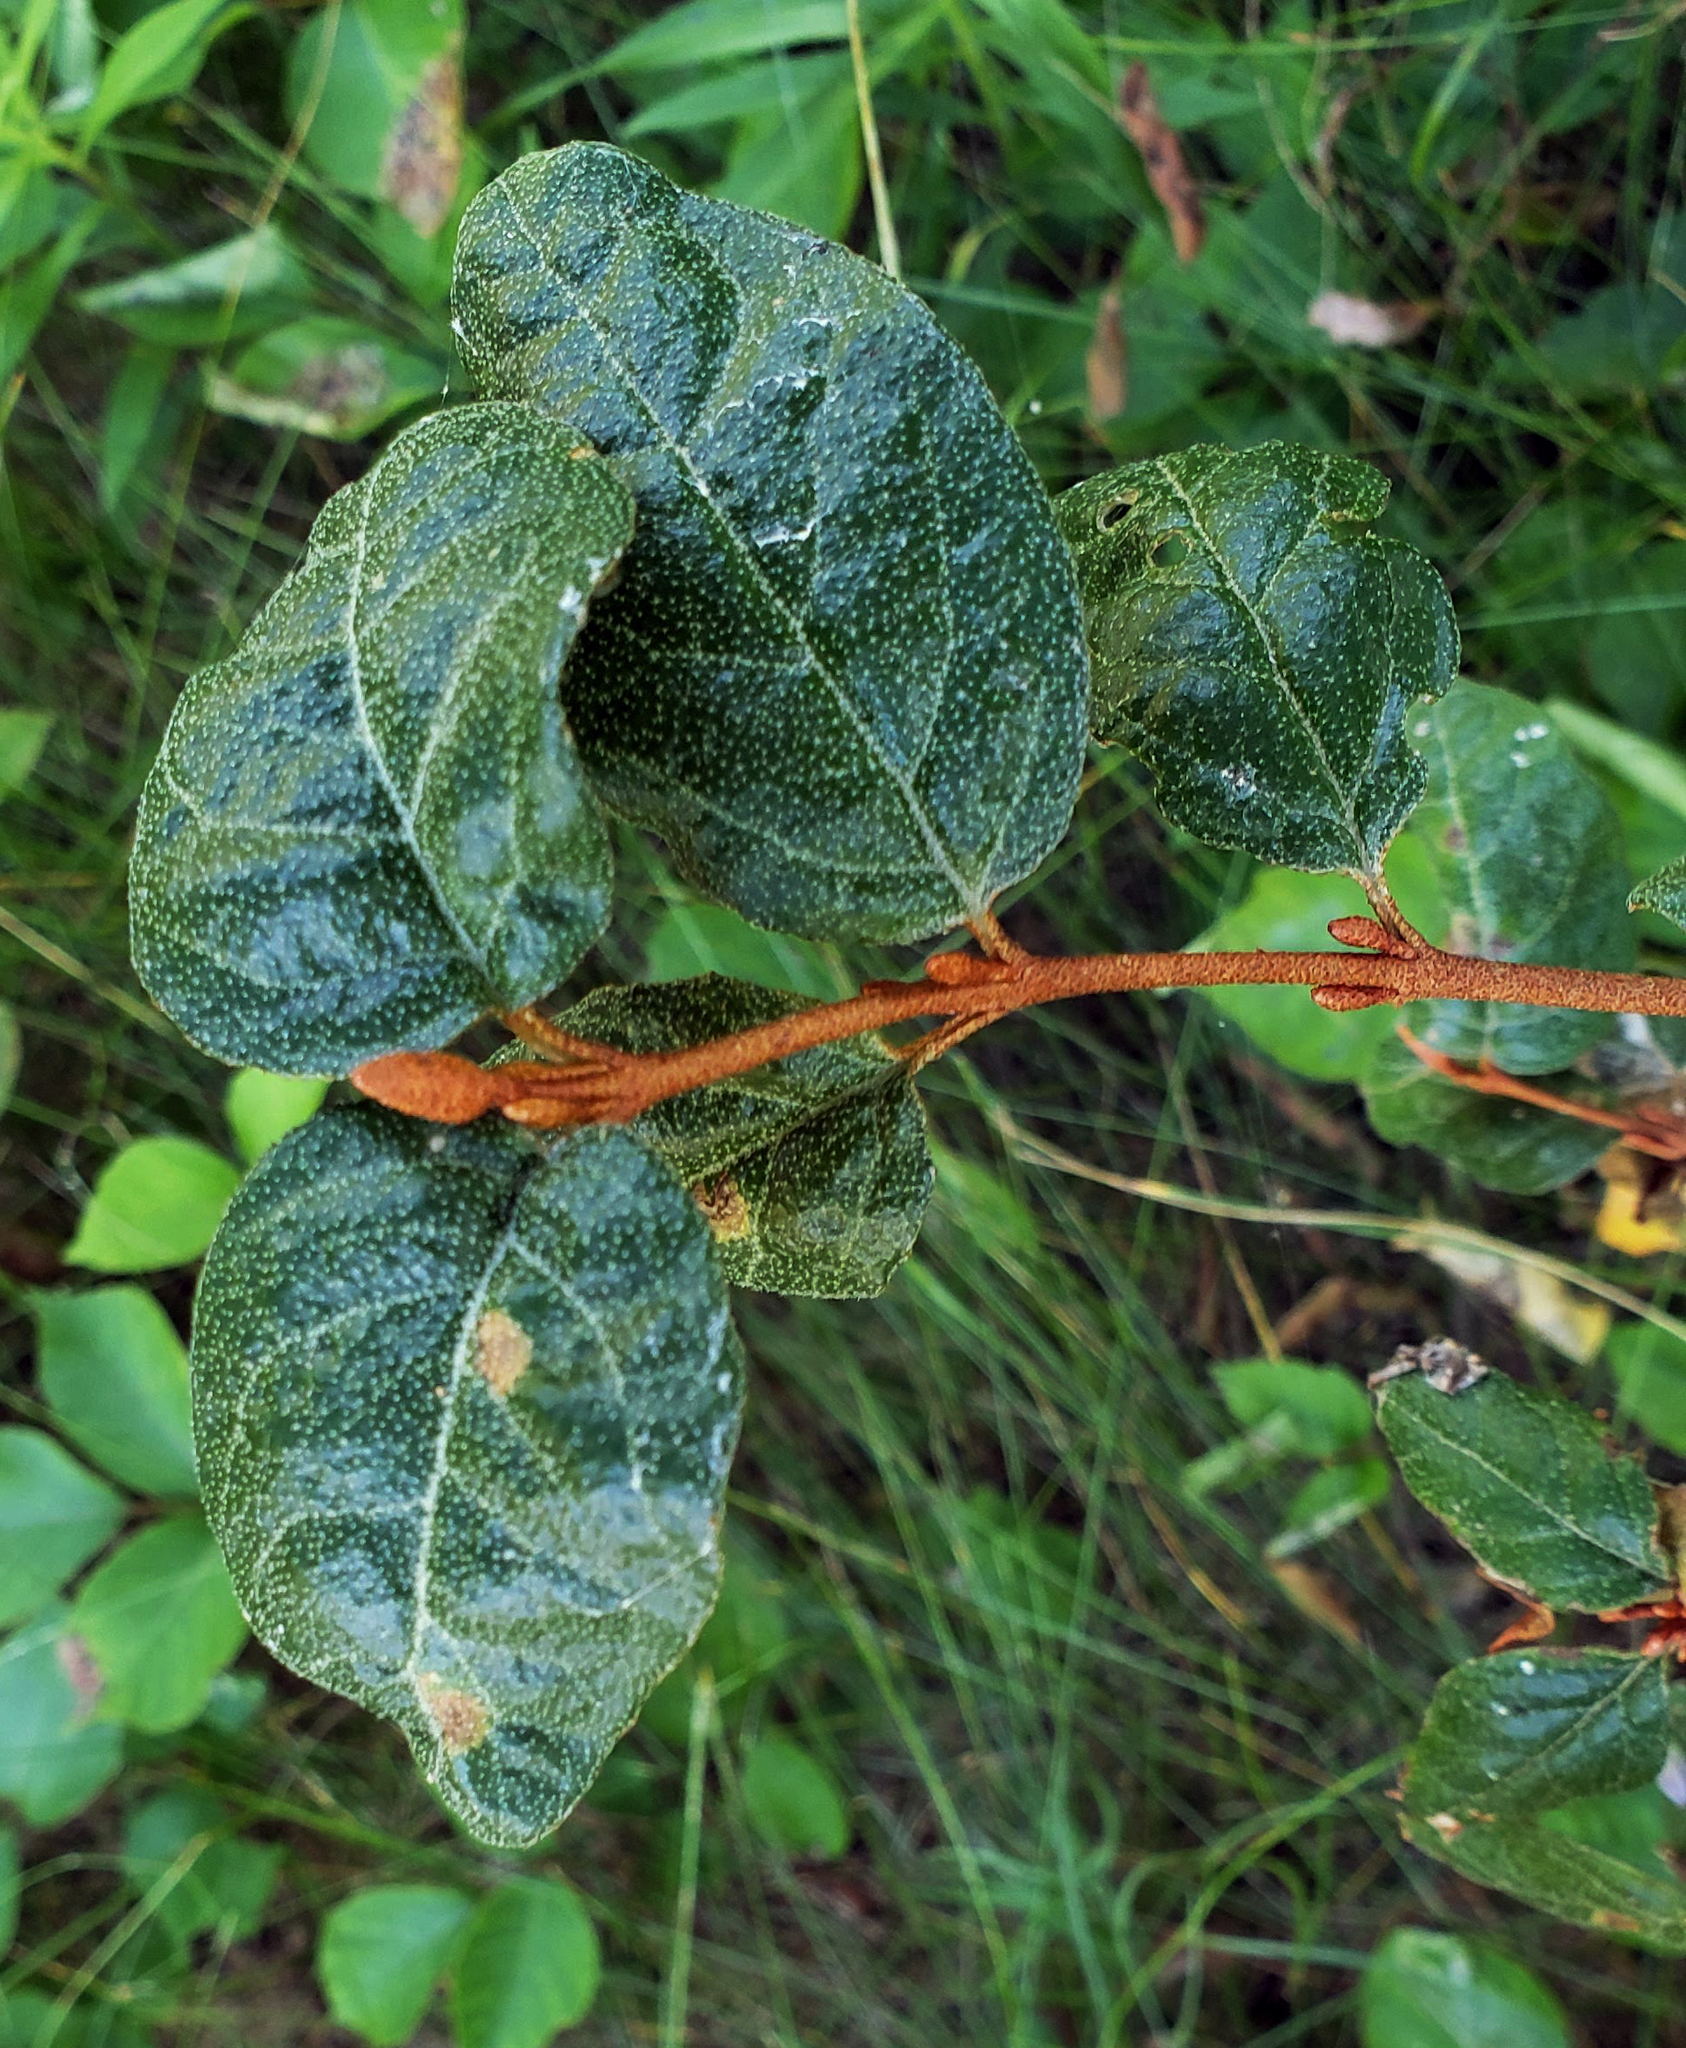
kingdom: Plantae
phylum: Tracheophyta
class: Magnoliopsida
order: Rosales
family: Elaeagnaceae
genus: Shepherdia
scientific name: Shepherdia canadensis
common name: Soapberry
